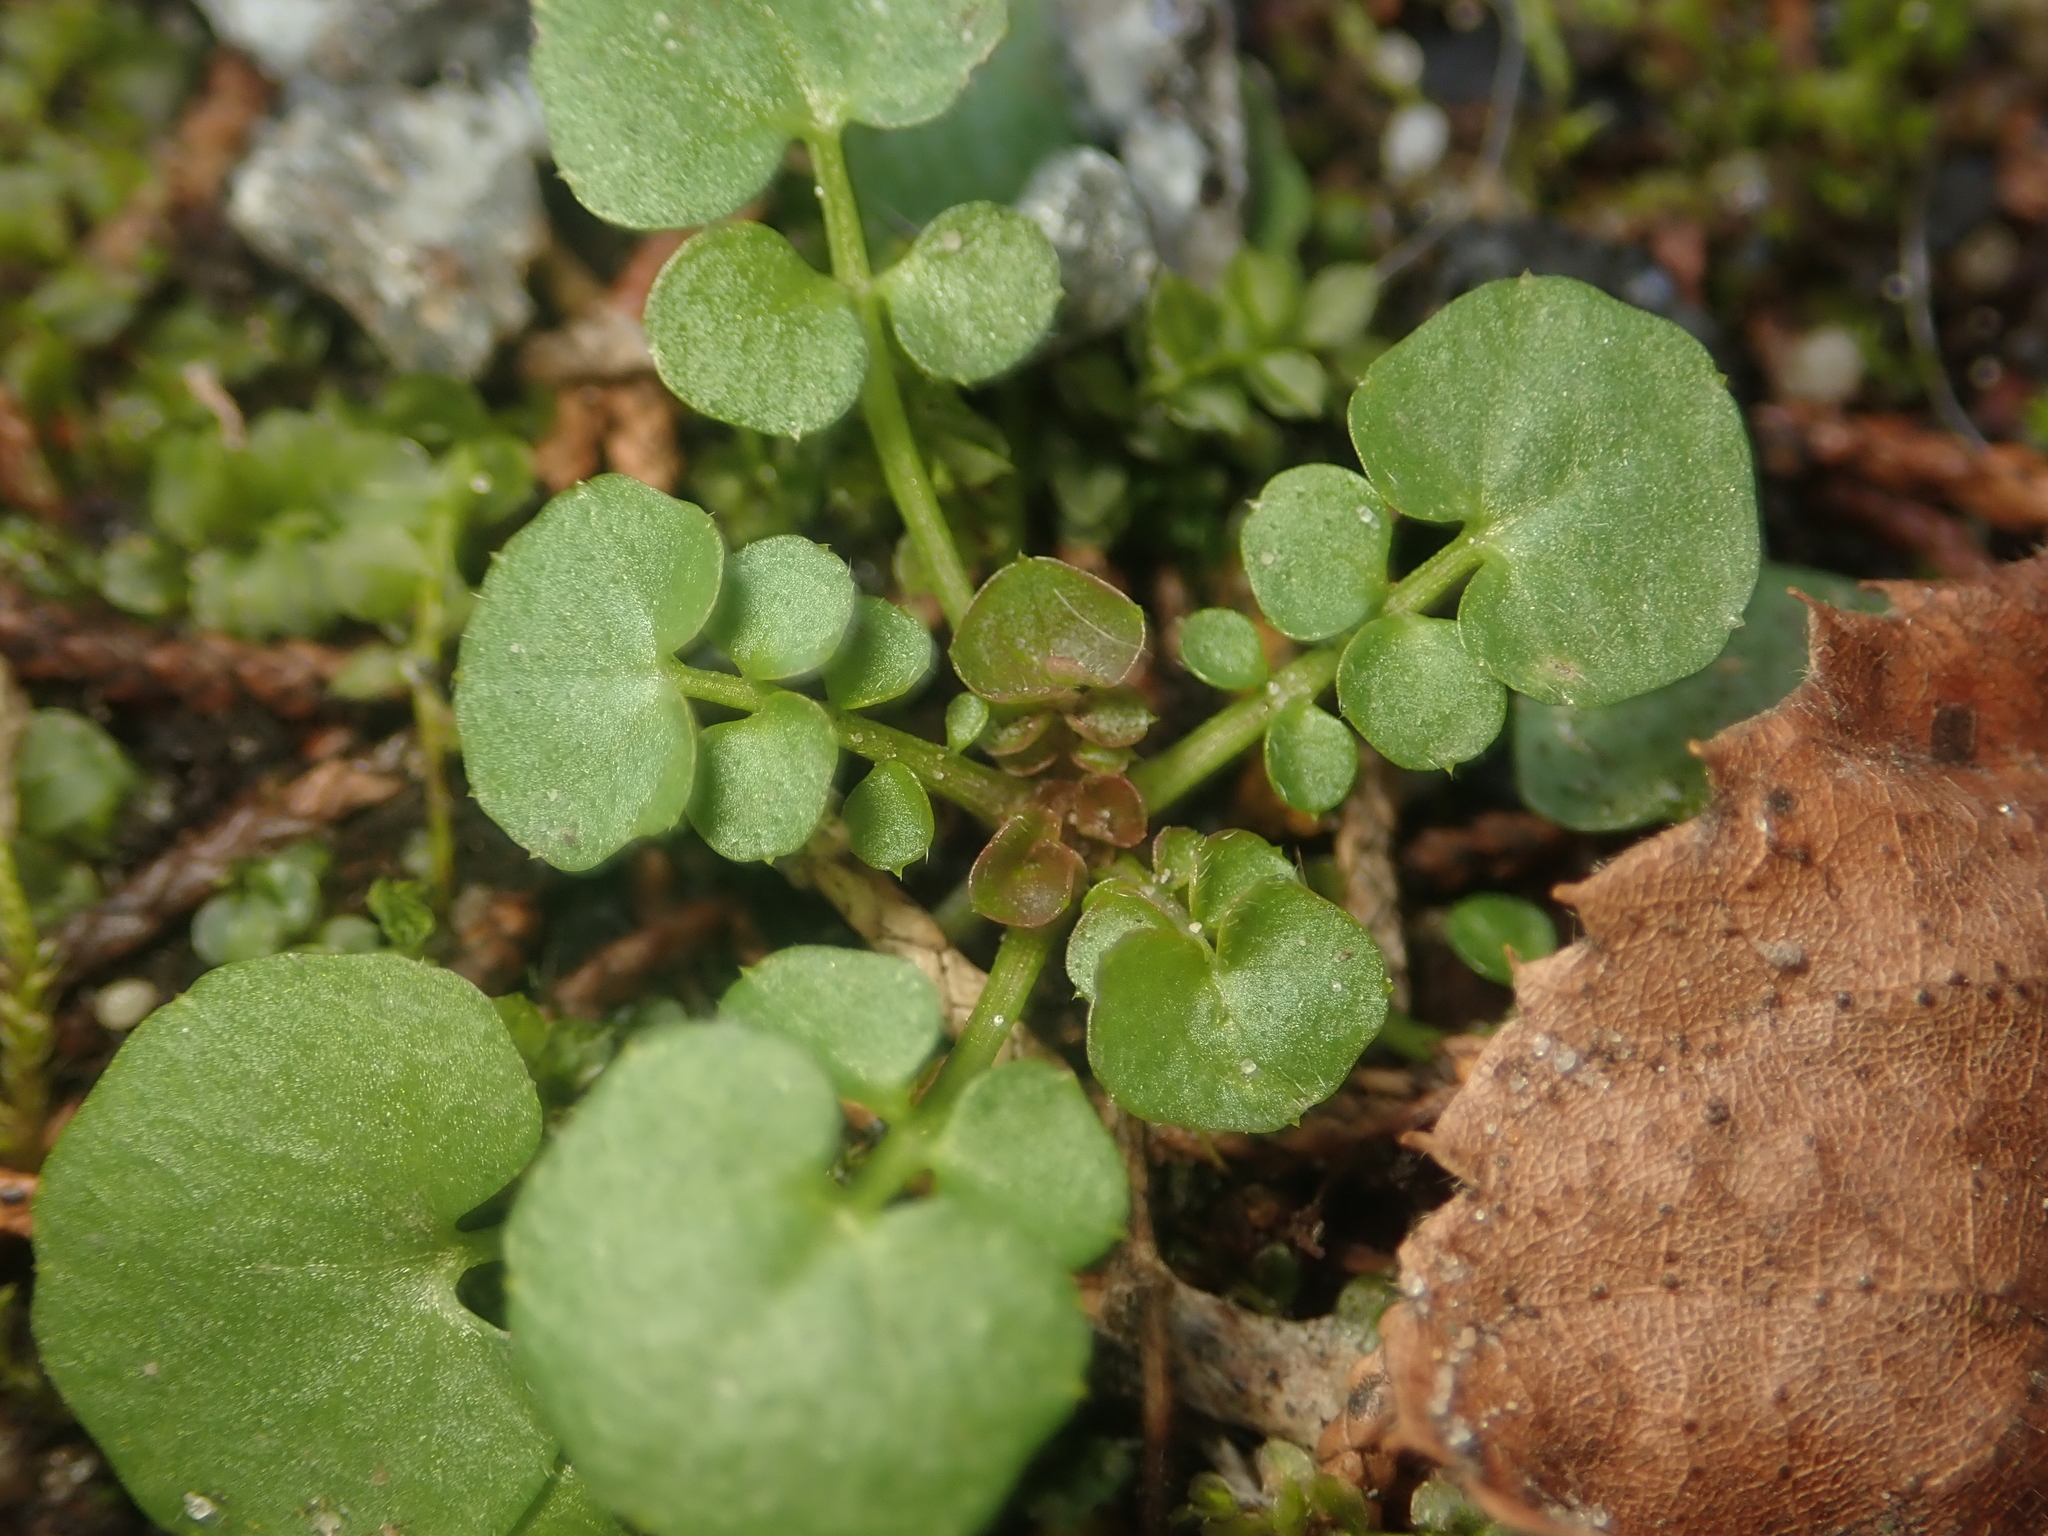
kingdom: Plantae
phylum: Tracheophyta
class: Magnoliopsida
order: Brassicales
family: Brassicaceae
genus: Cardamine
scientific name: Cardamine hirsuta
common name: Hairy bittercress
